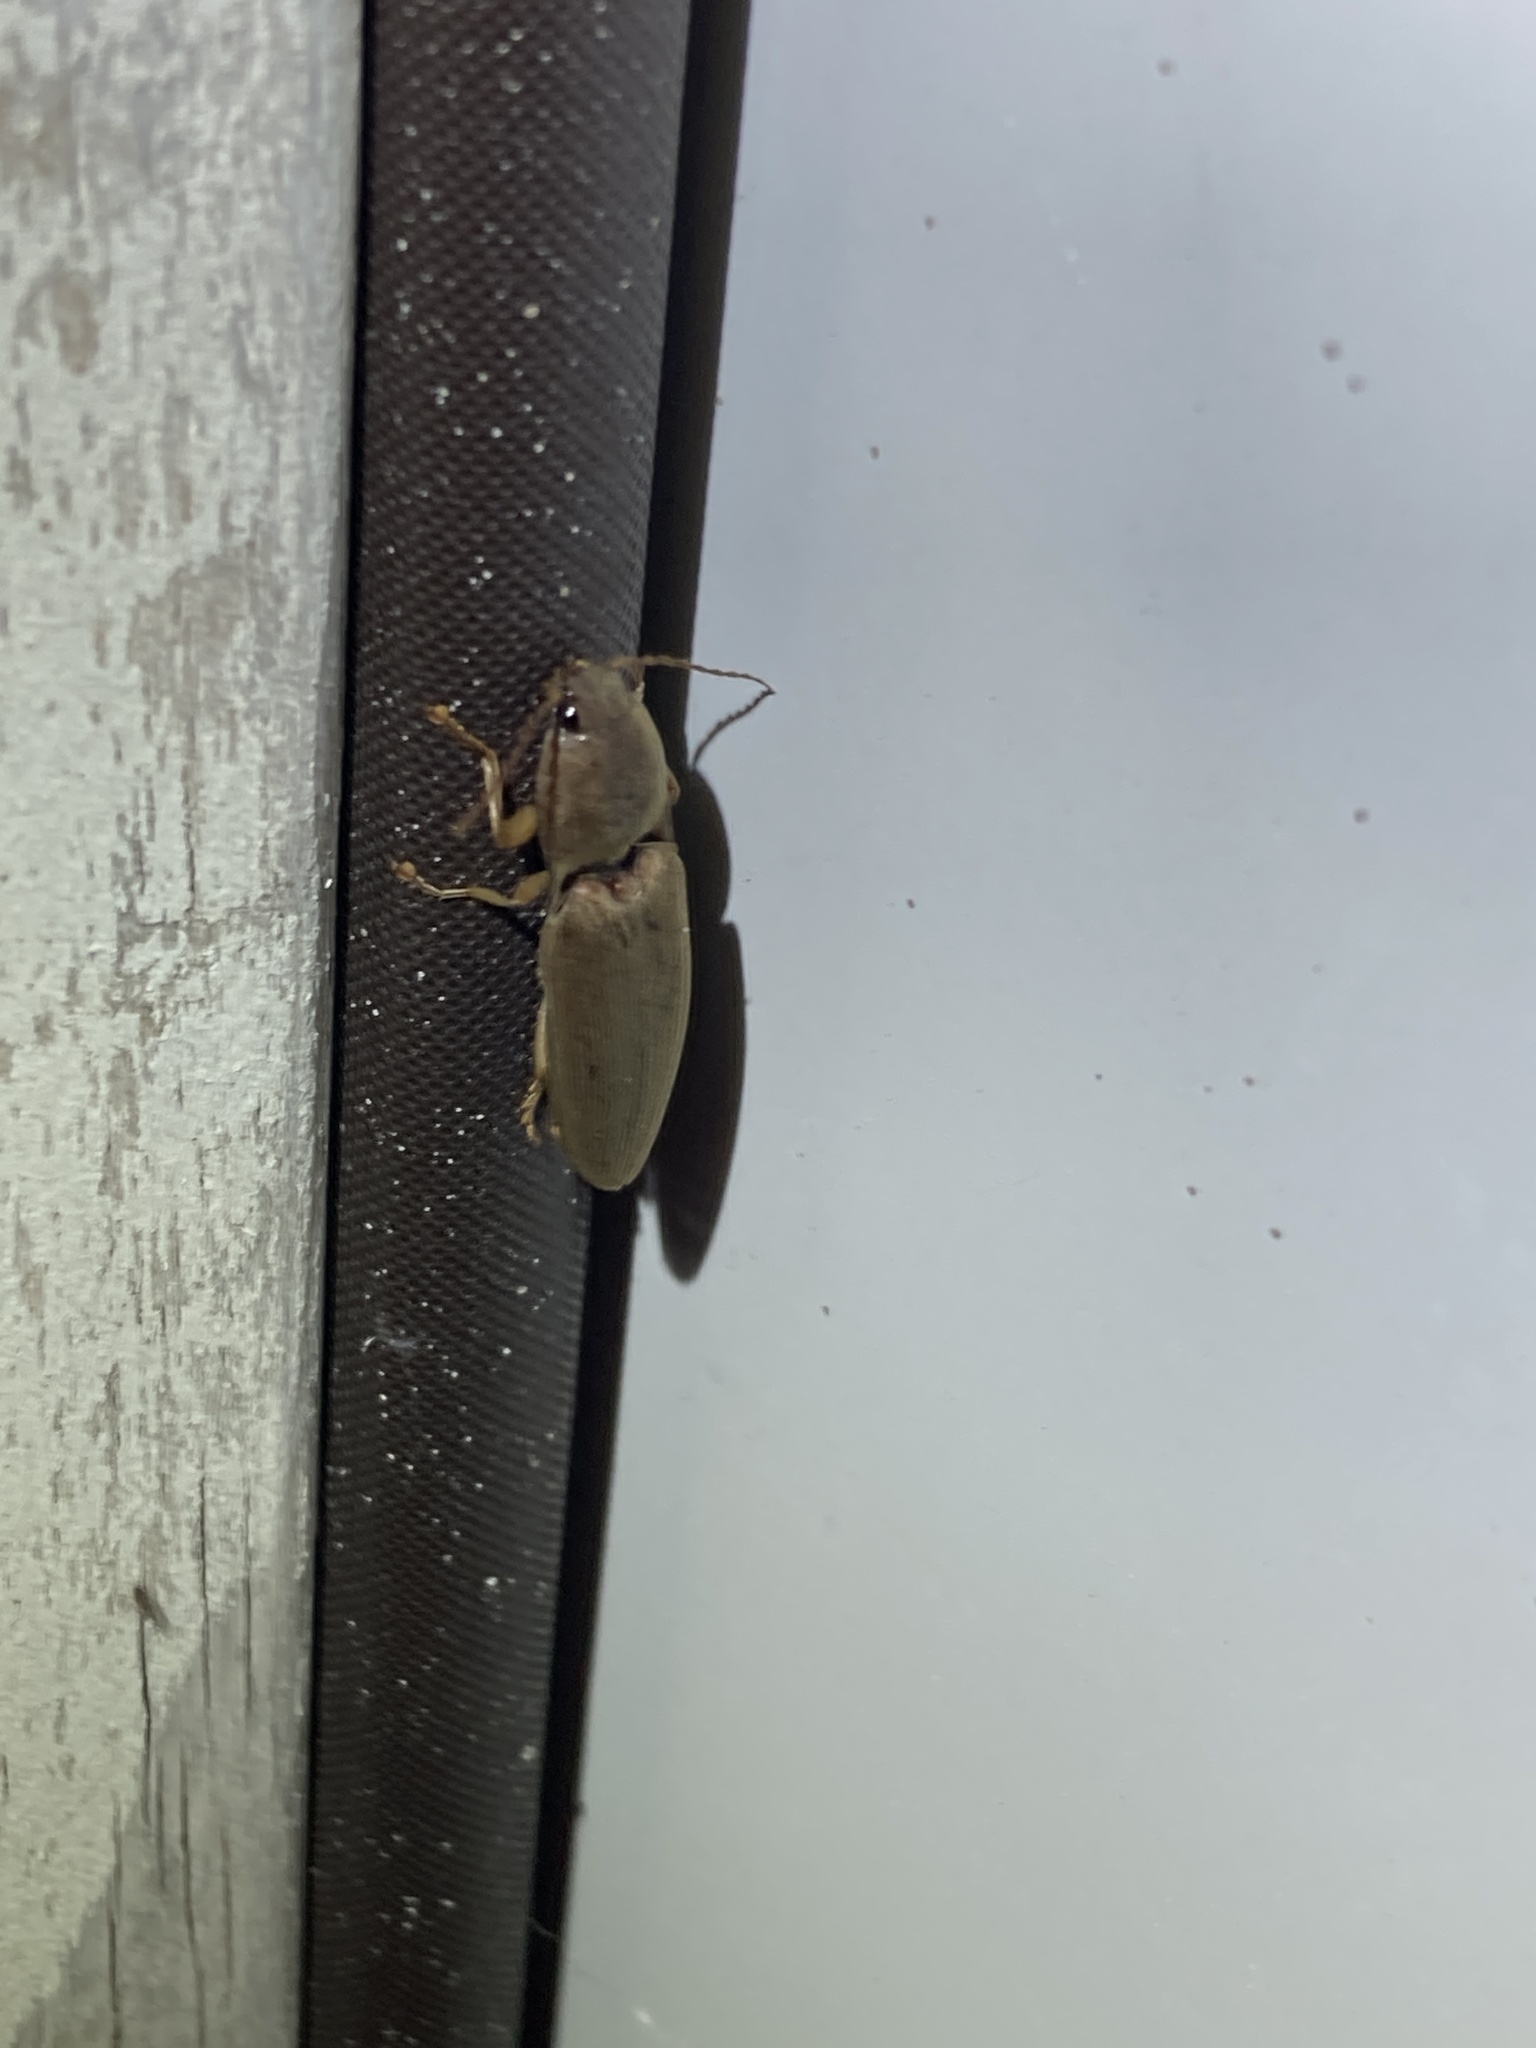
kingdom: Animalia
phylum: Arthropoda
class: Insecta
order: Coleoptera
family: Elateridae
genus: Monocrepidius
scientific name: Monocrepidius lividus
